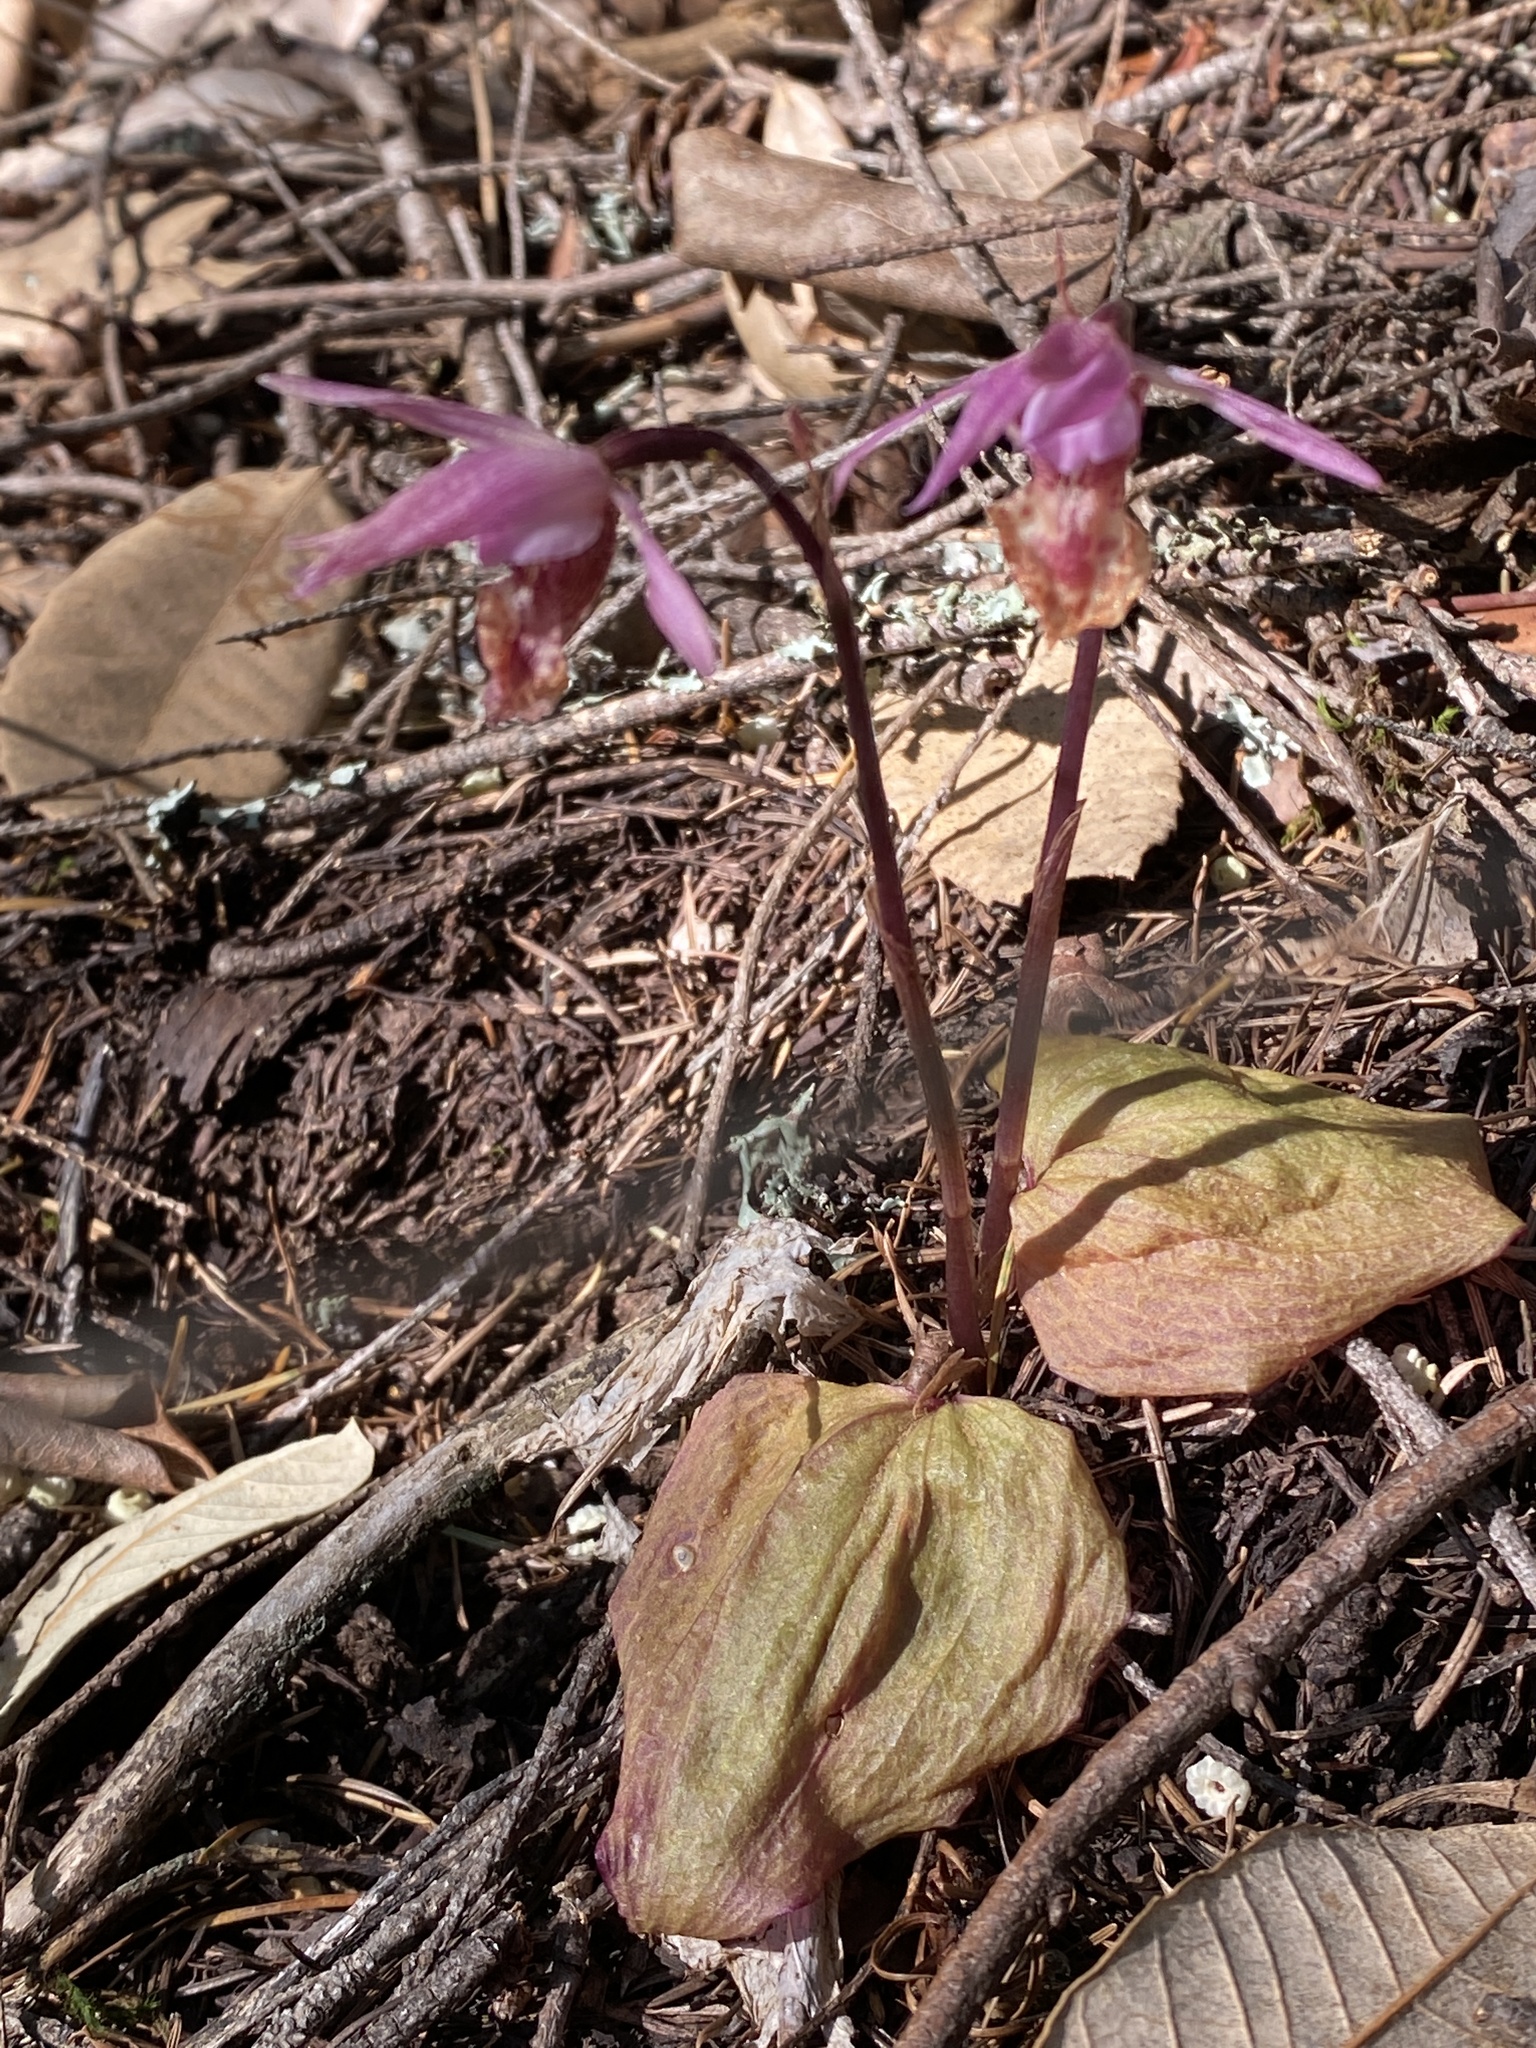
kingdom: Plantae
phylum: Tracheophyta
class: Liliopsida
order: Asparagales
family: Orchidaceae
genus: Calypso
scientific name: Calypso bulbosa
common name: Calypso
